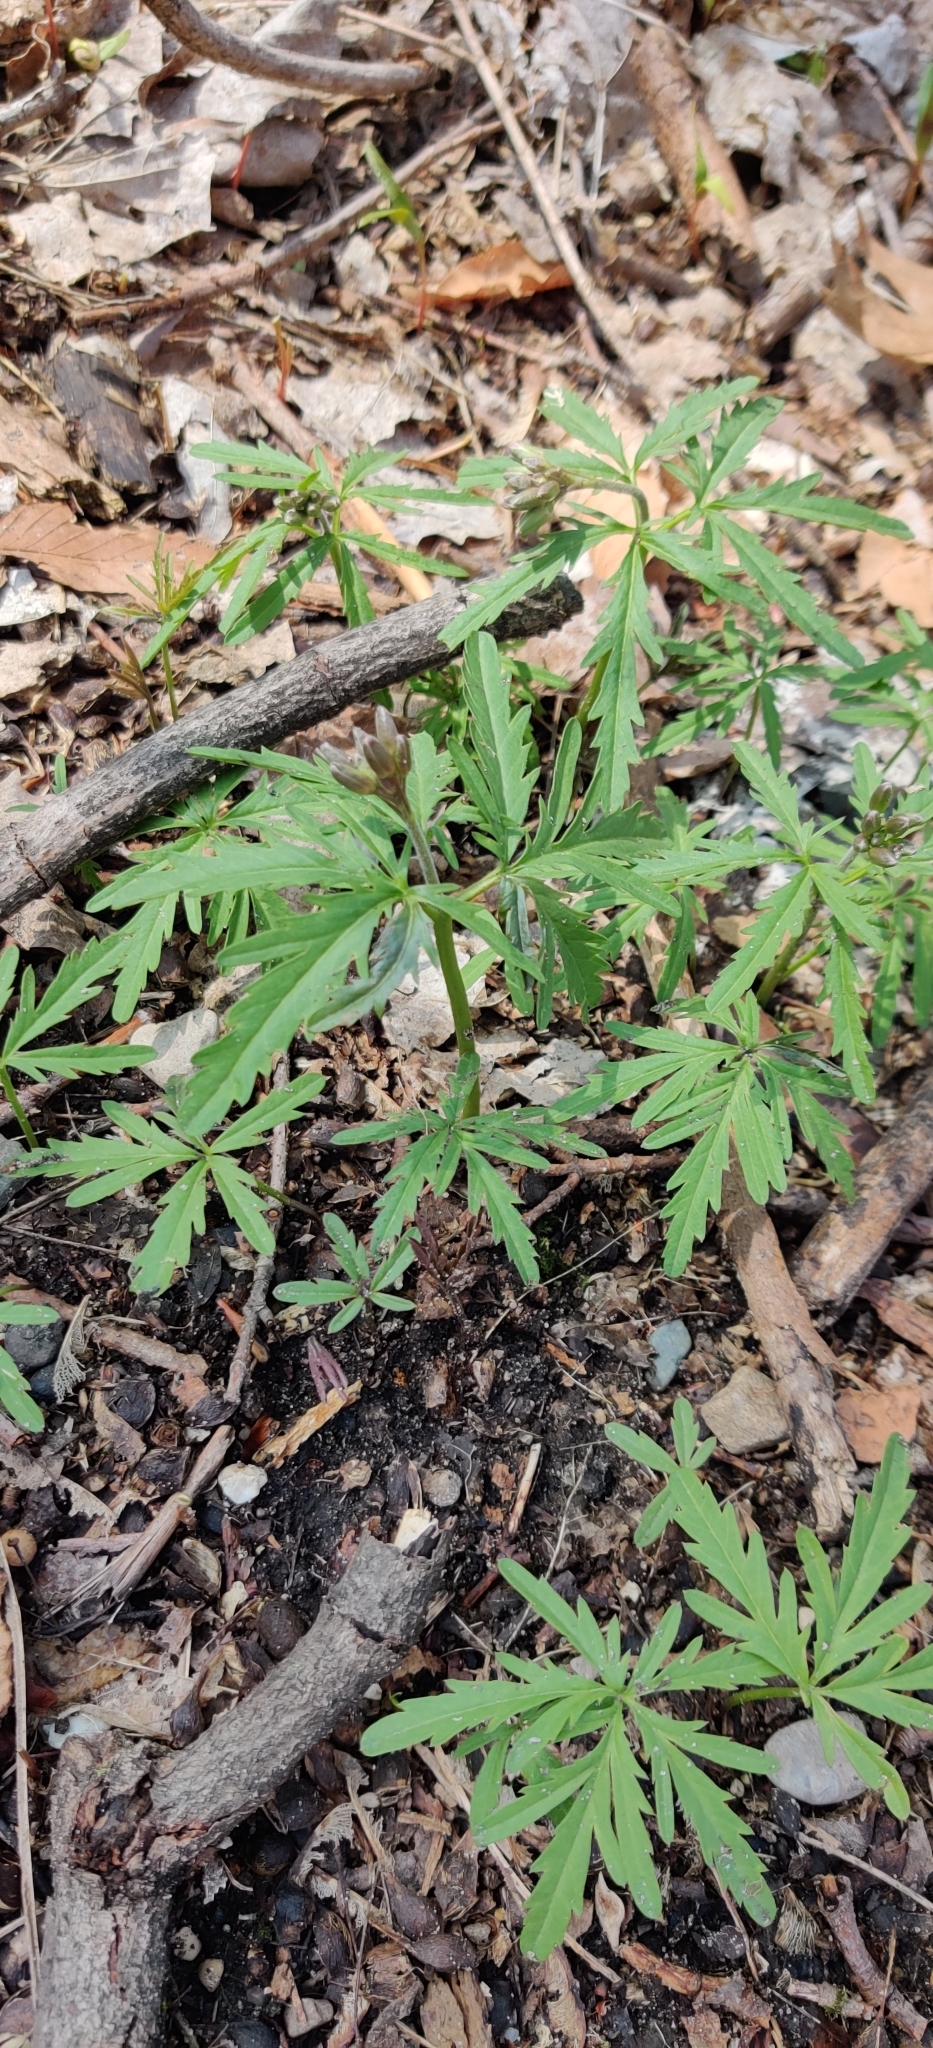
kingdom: Plantae
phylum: Tracheophyta
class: Magnoliopsida
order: Brassicales
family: Brassicaceae
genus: Cardamine
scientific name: Cardamine concatenata
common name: Cut-leaf toothcup
